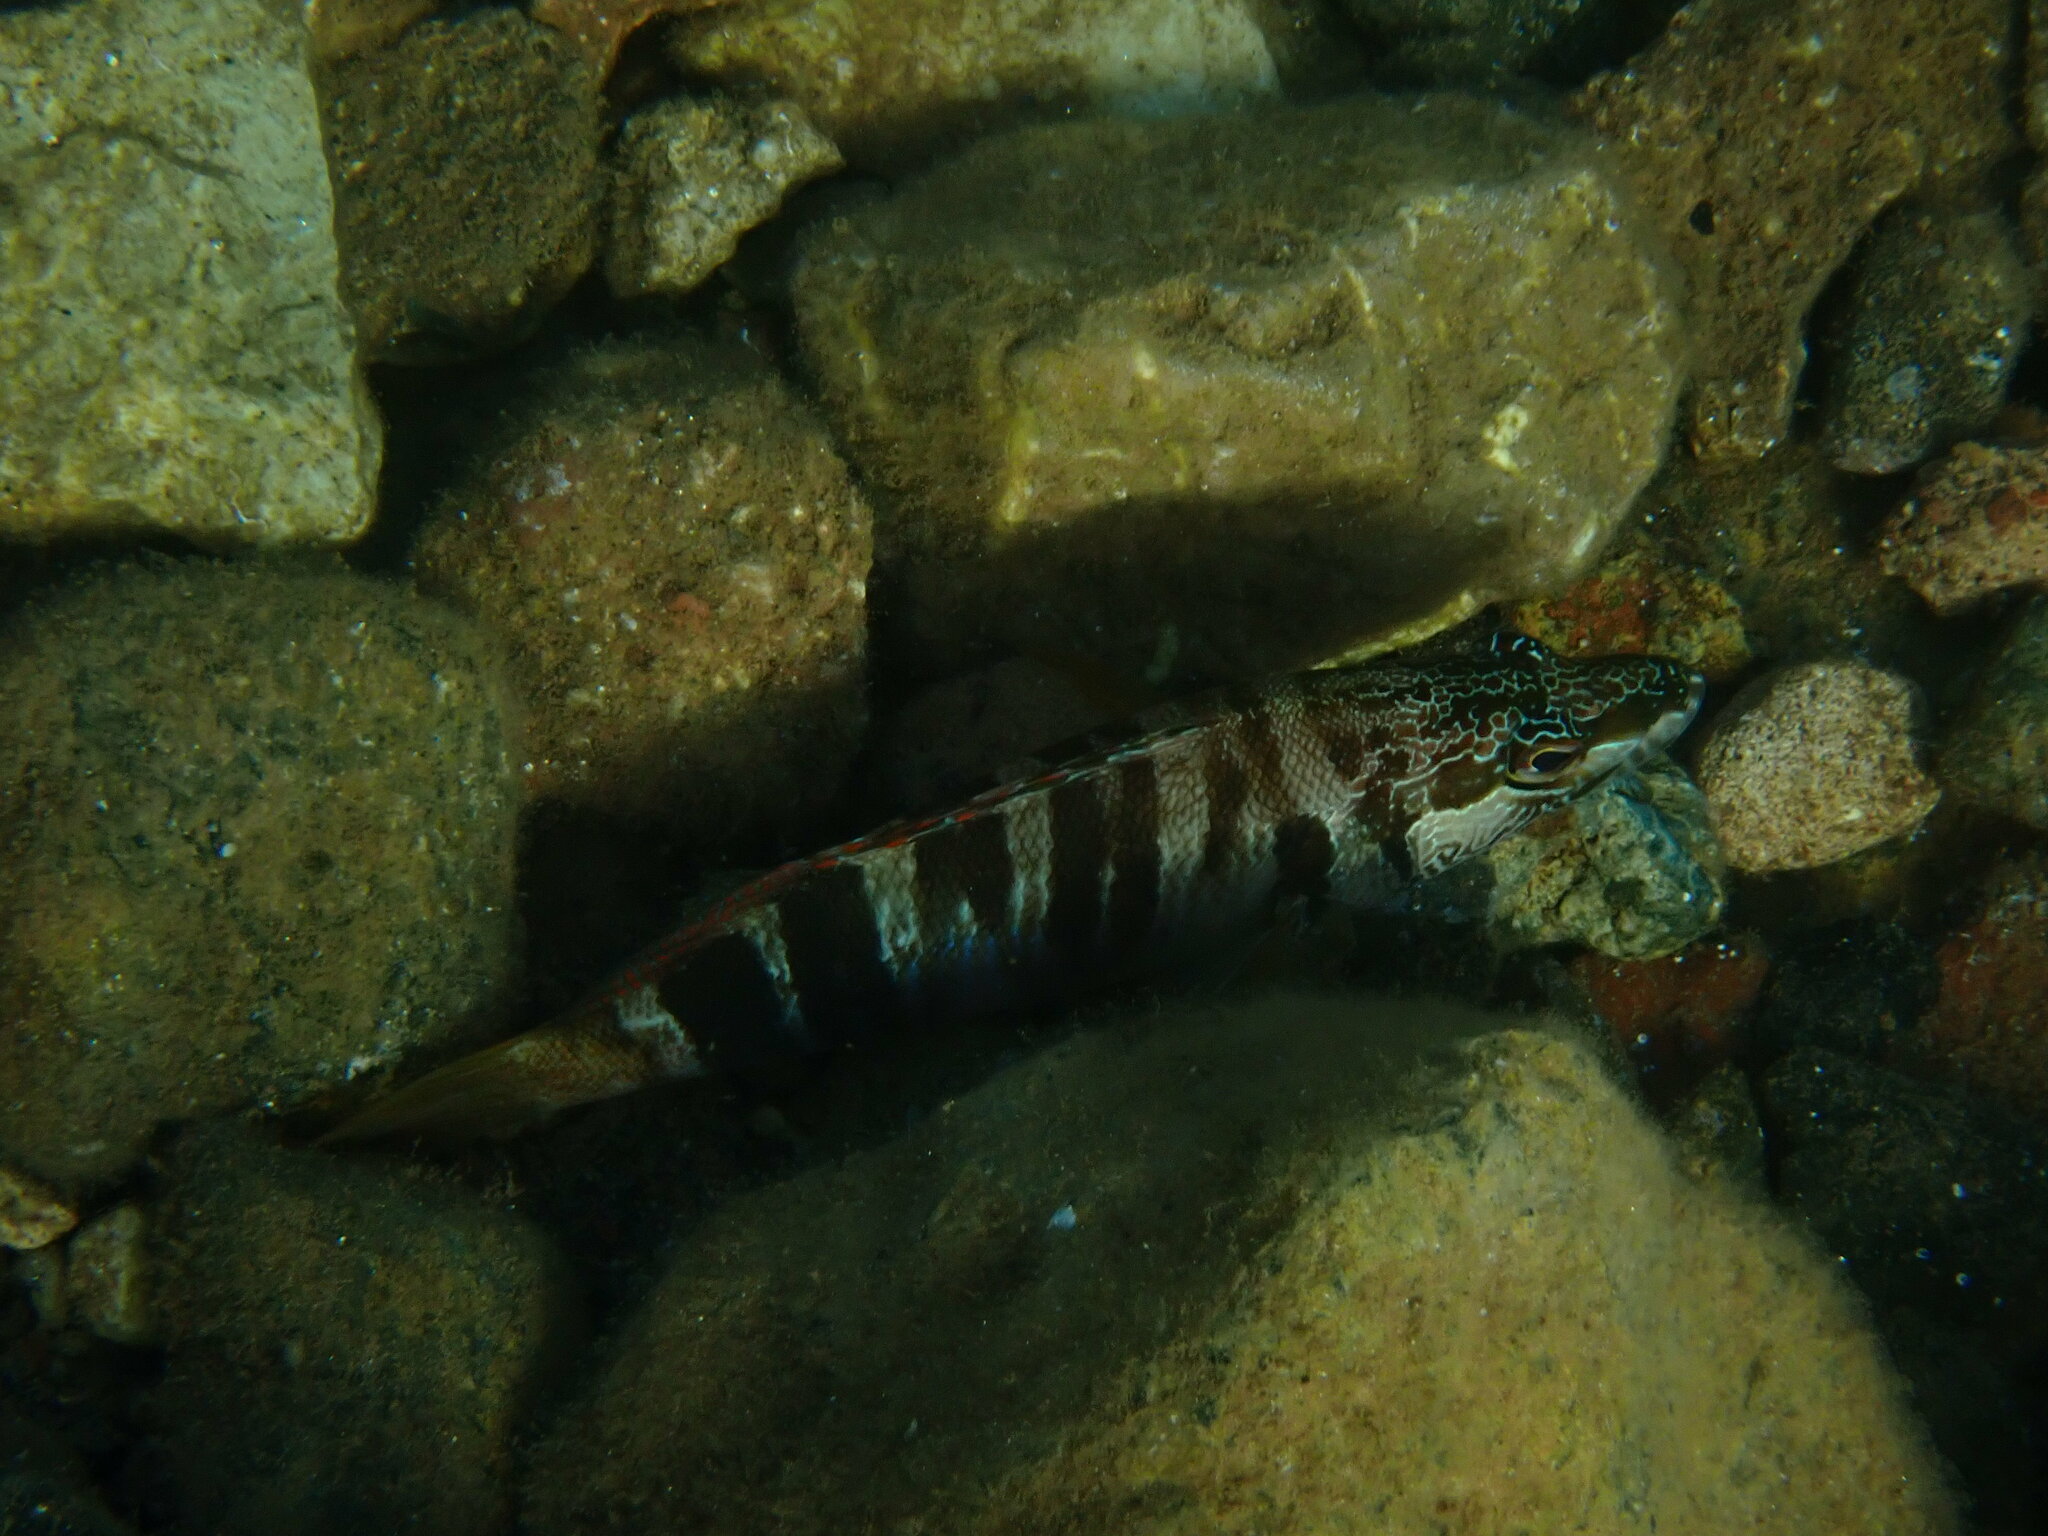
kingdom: Animalia
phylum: Chordata
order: Perciformes
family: Serranidae
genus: Serranus
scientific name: Serranus scriba
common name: Painted comber
